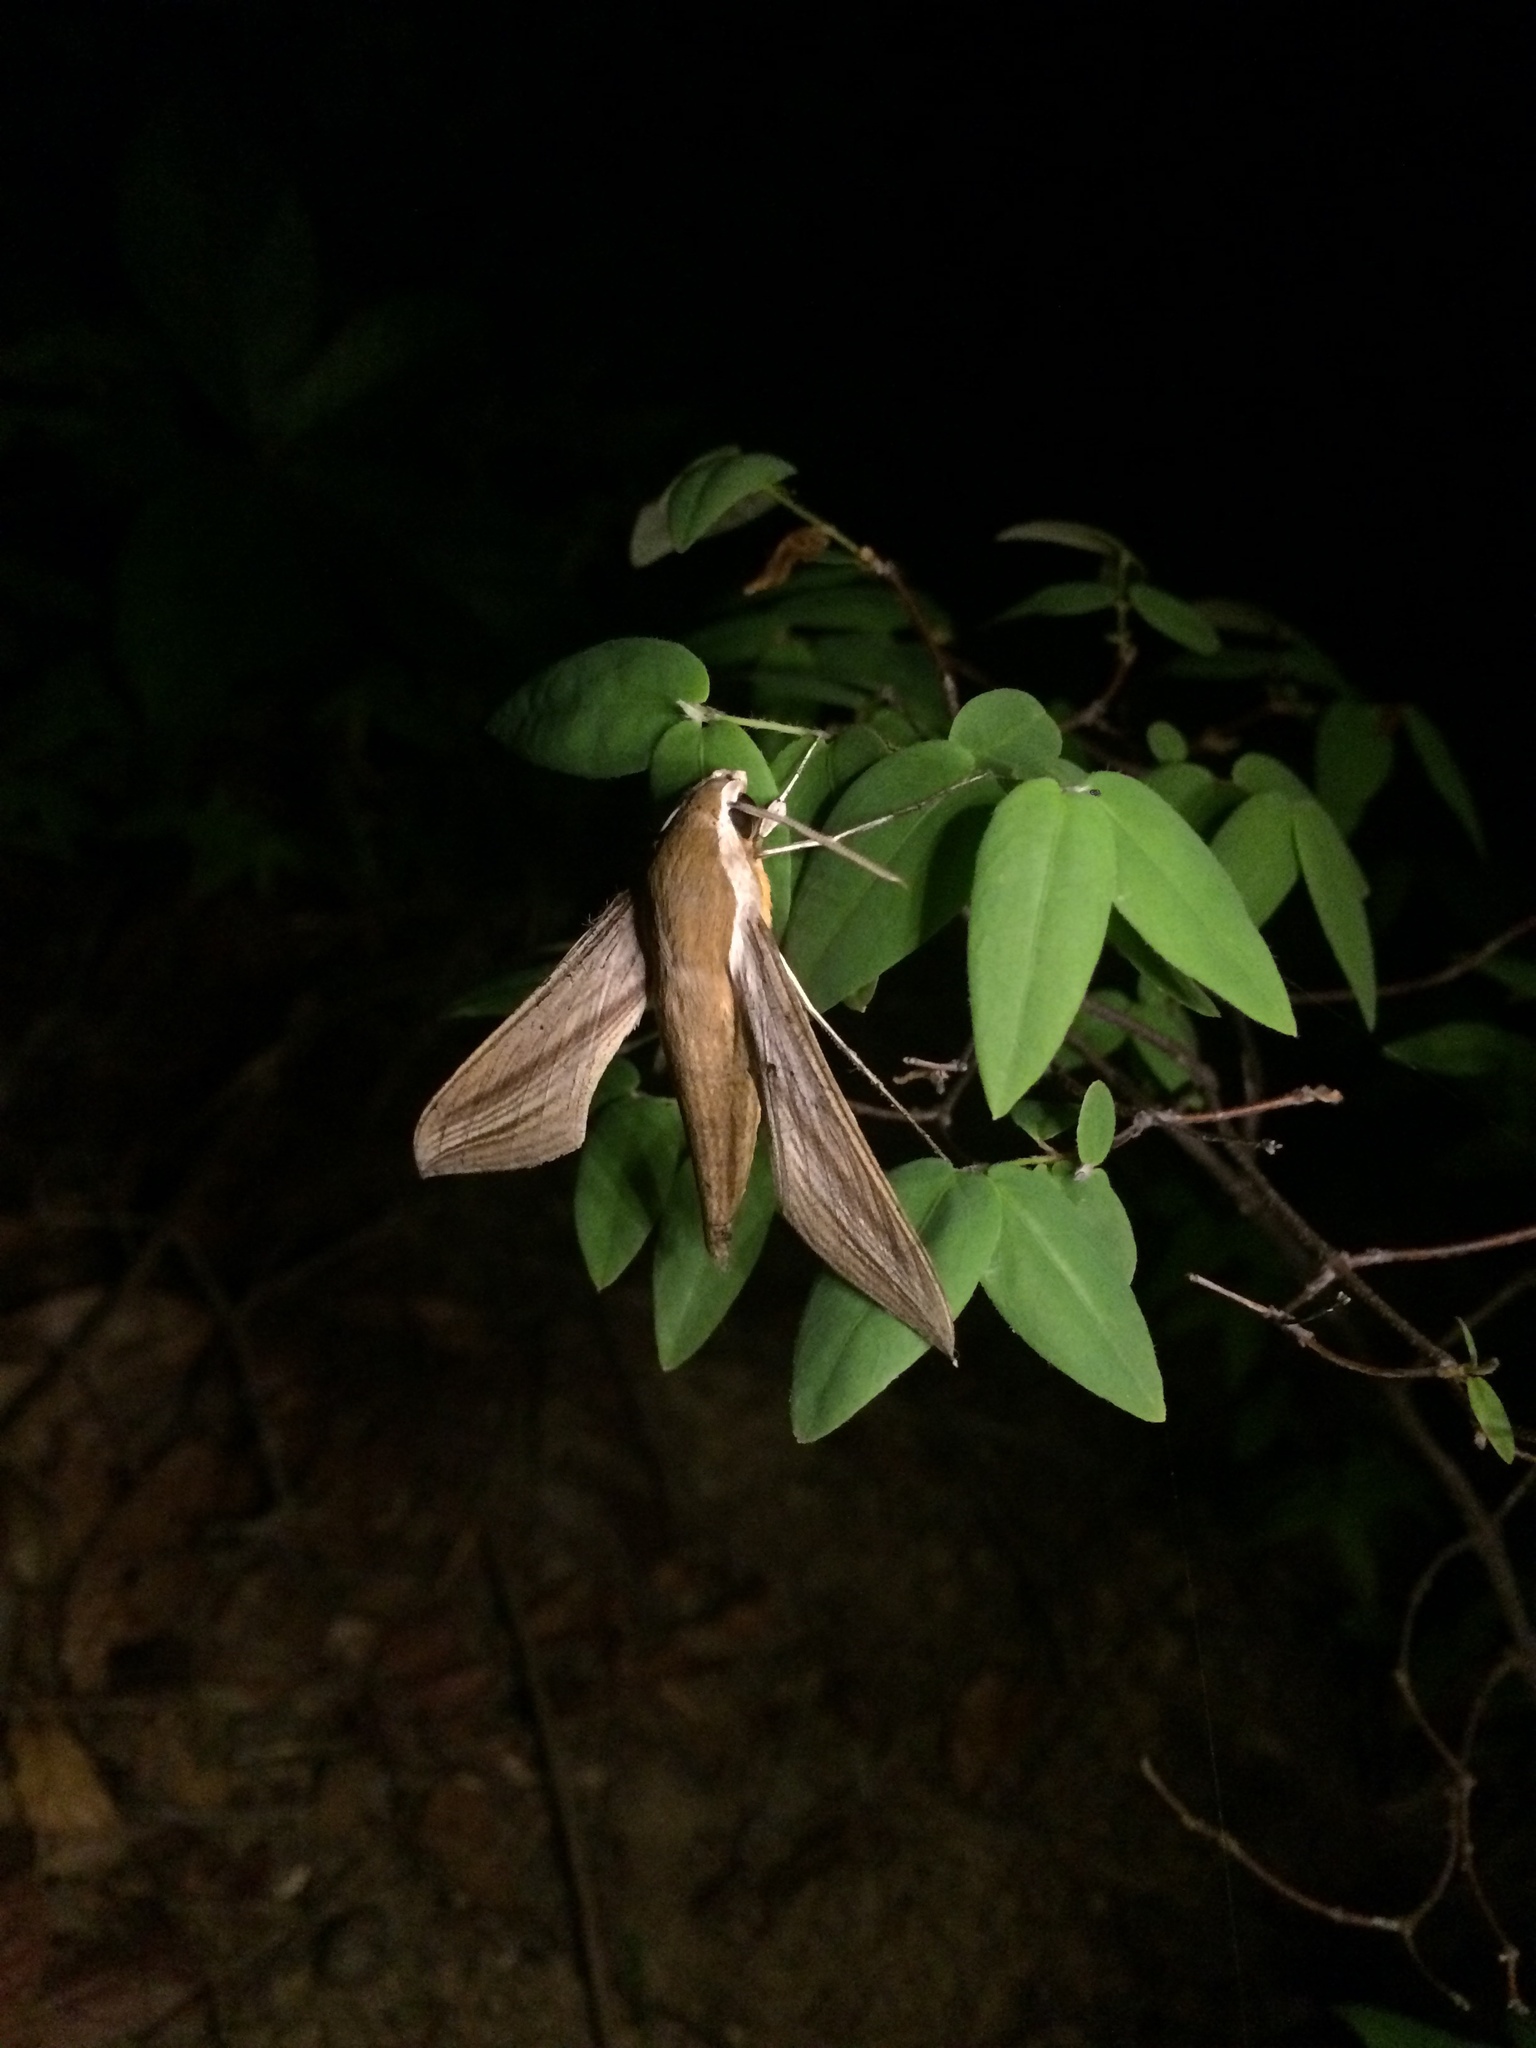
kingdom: Animalia
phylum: Arthropoda
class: Insecta
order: Lepidoptera
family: Sphingidae
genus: Xylophanes
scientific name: Xylophanes tersa
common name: Tersa sphinx
